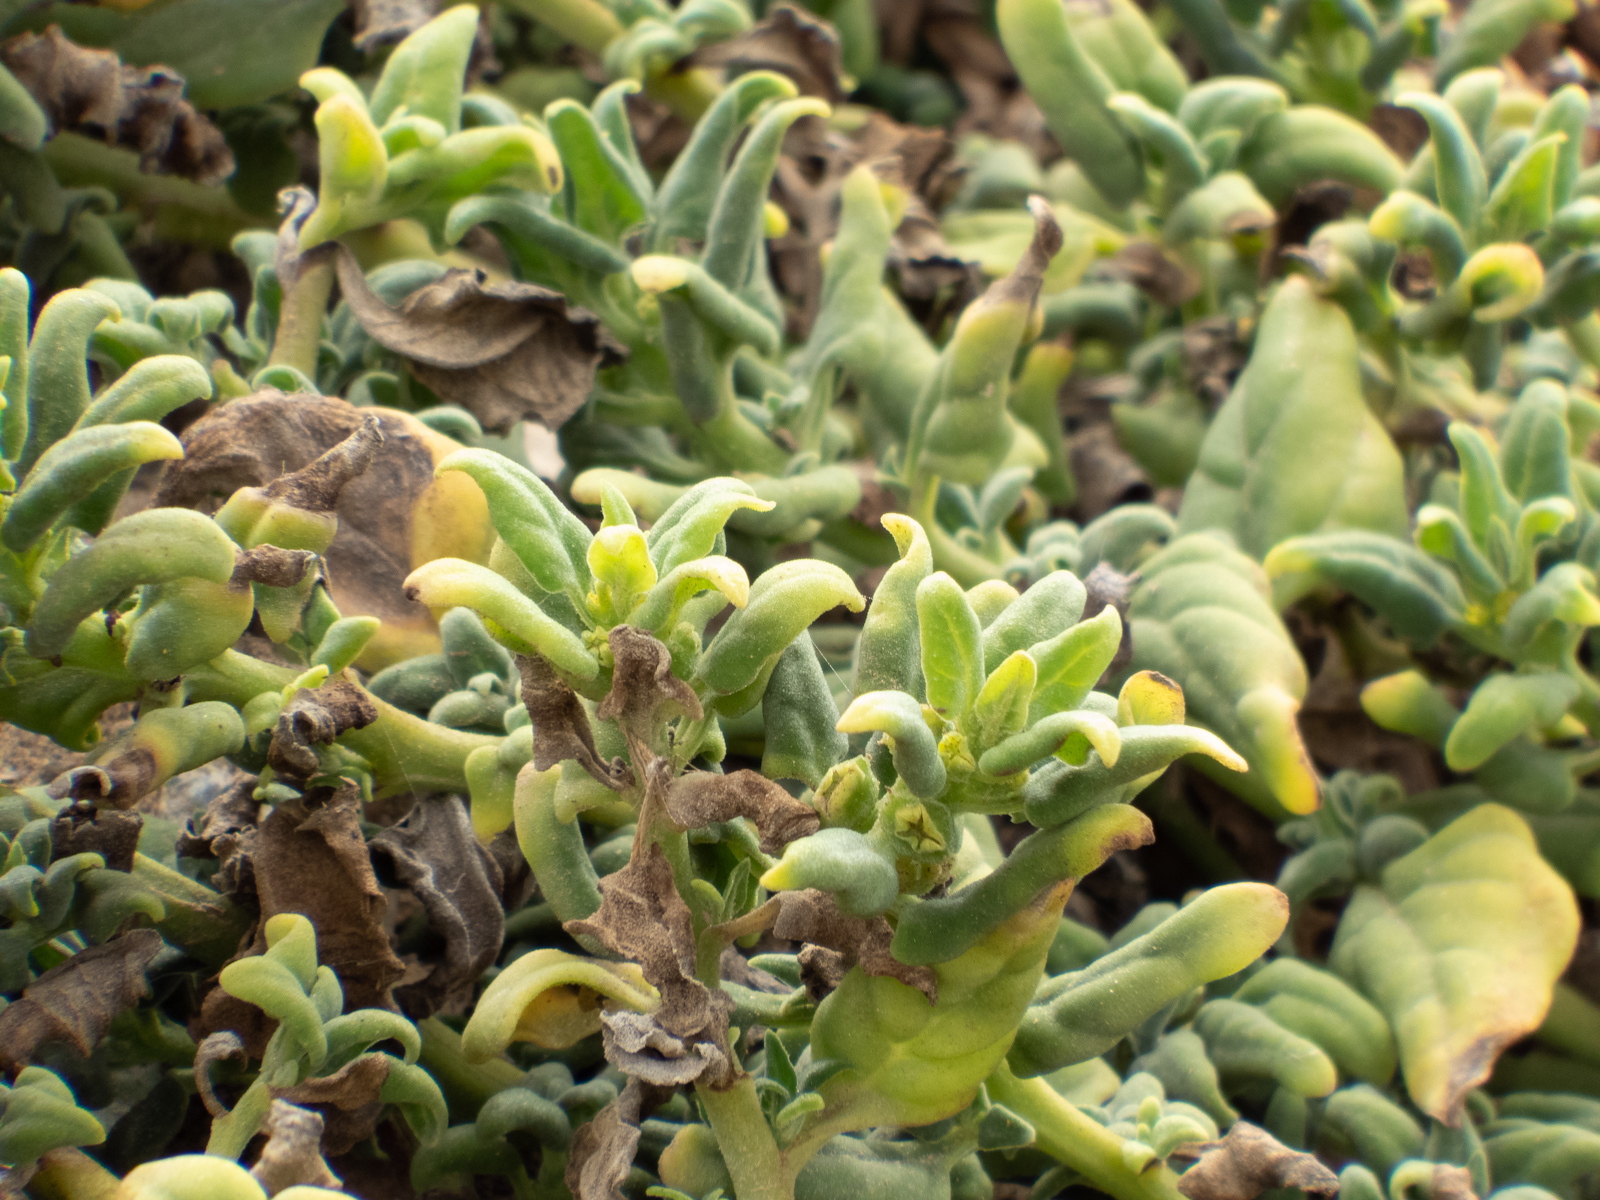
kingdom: Plantae
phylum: Tracheophyta
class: Magnoliopsida
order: Caryophyllales
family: Aizoaceae
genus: Tetragonia
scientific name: Tetragonia tetragonoides
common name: New zealand-spinach
